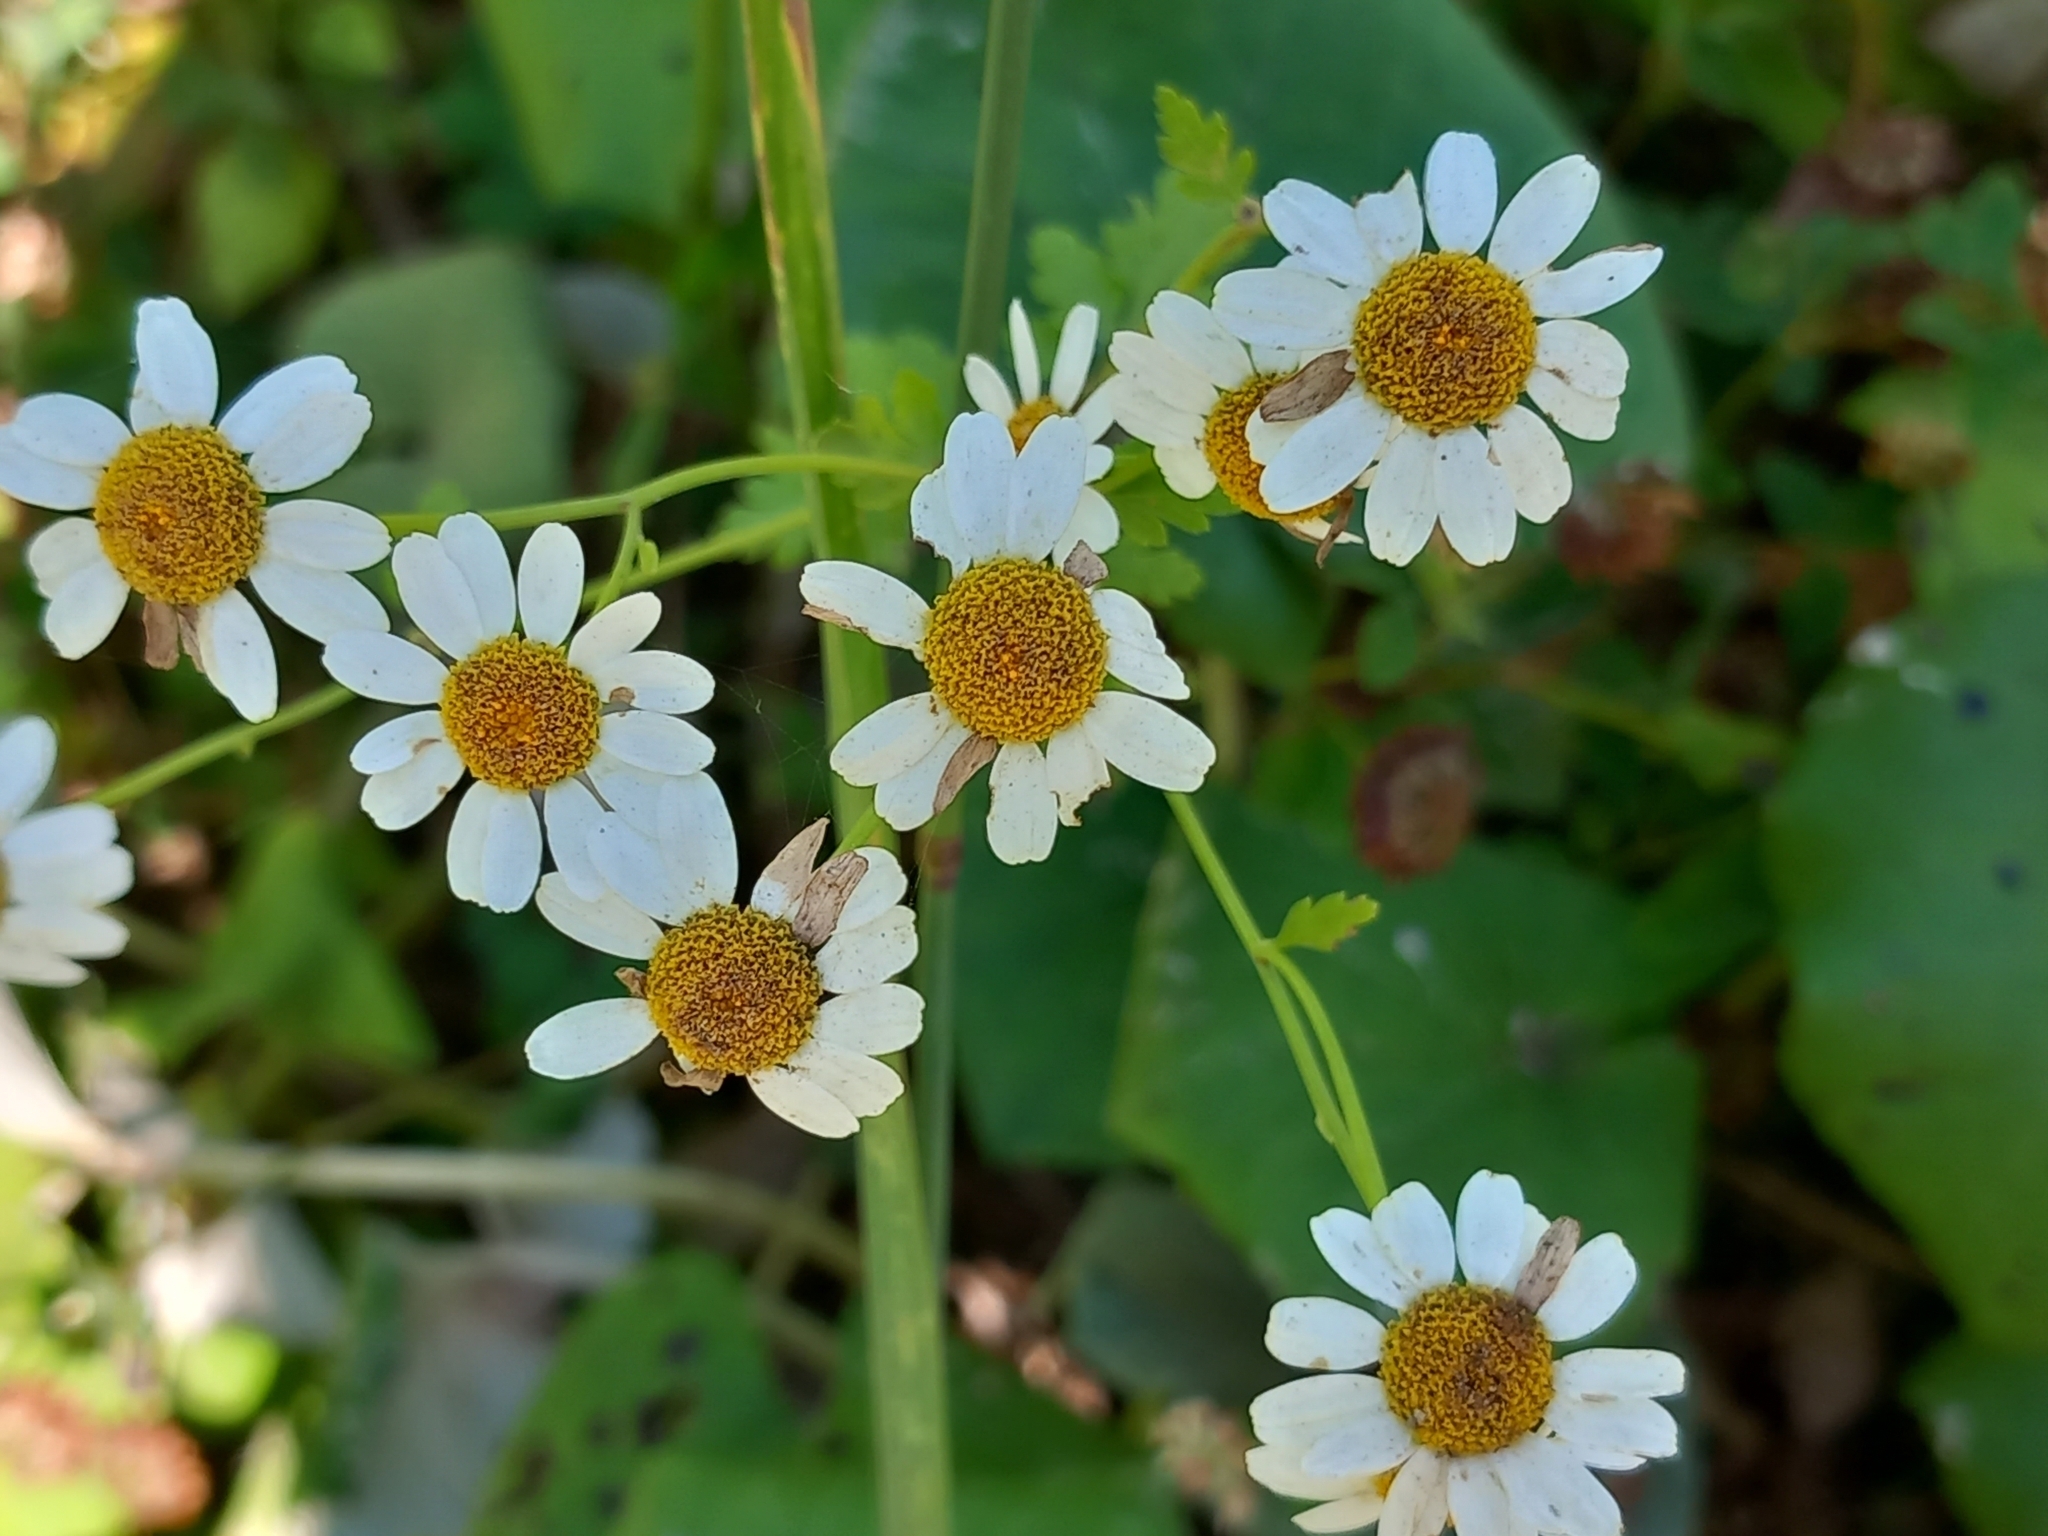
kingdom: Plantae
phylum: Tracheophyta
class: Magnoliopsida
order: Asterales
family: Asteraceae
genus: Tanacetum
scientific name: Tanacetum partheniifolium
